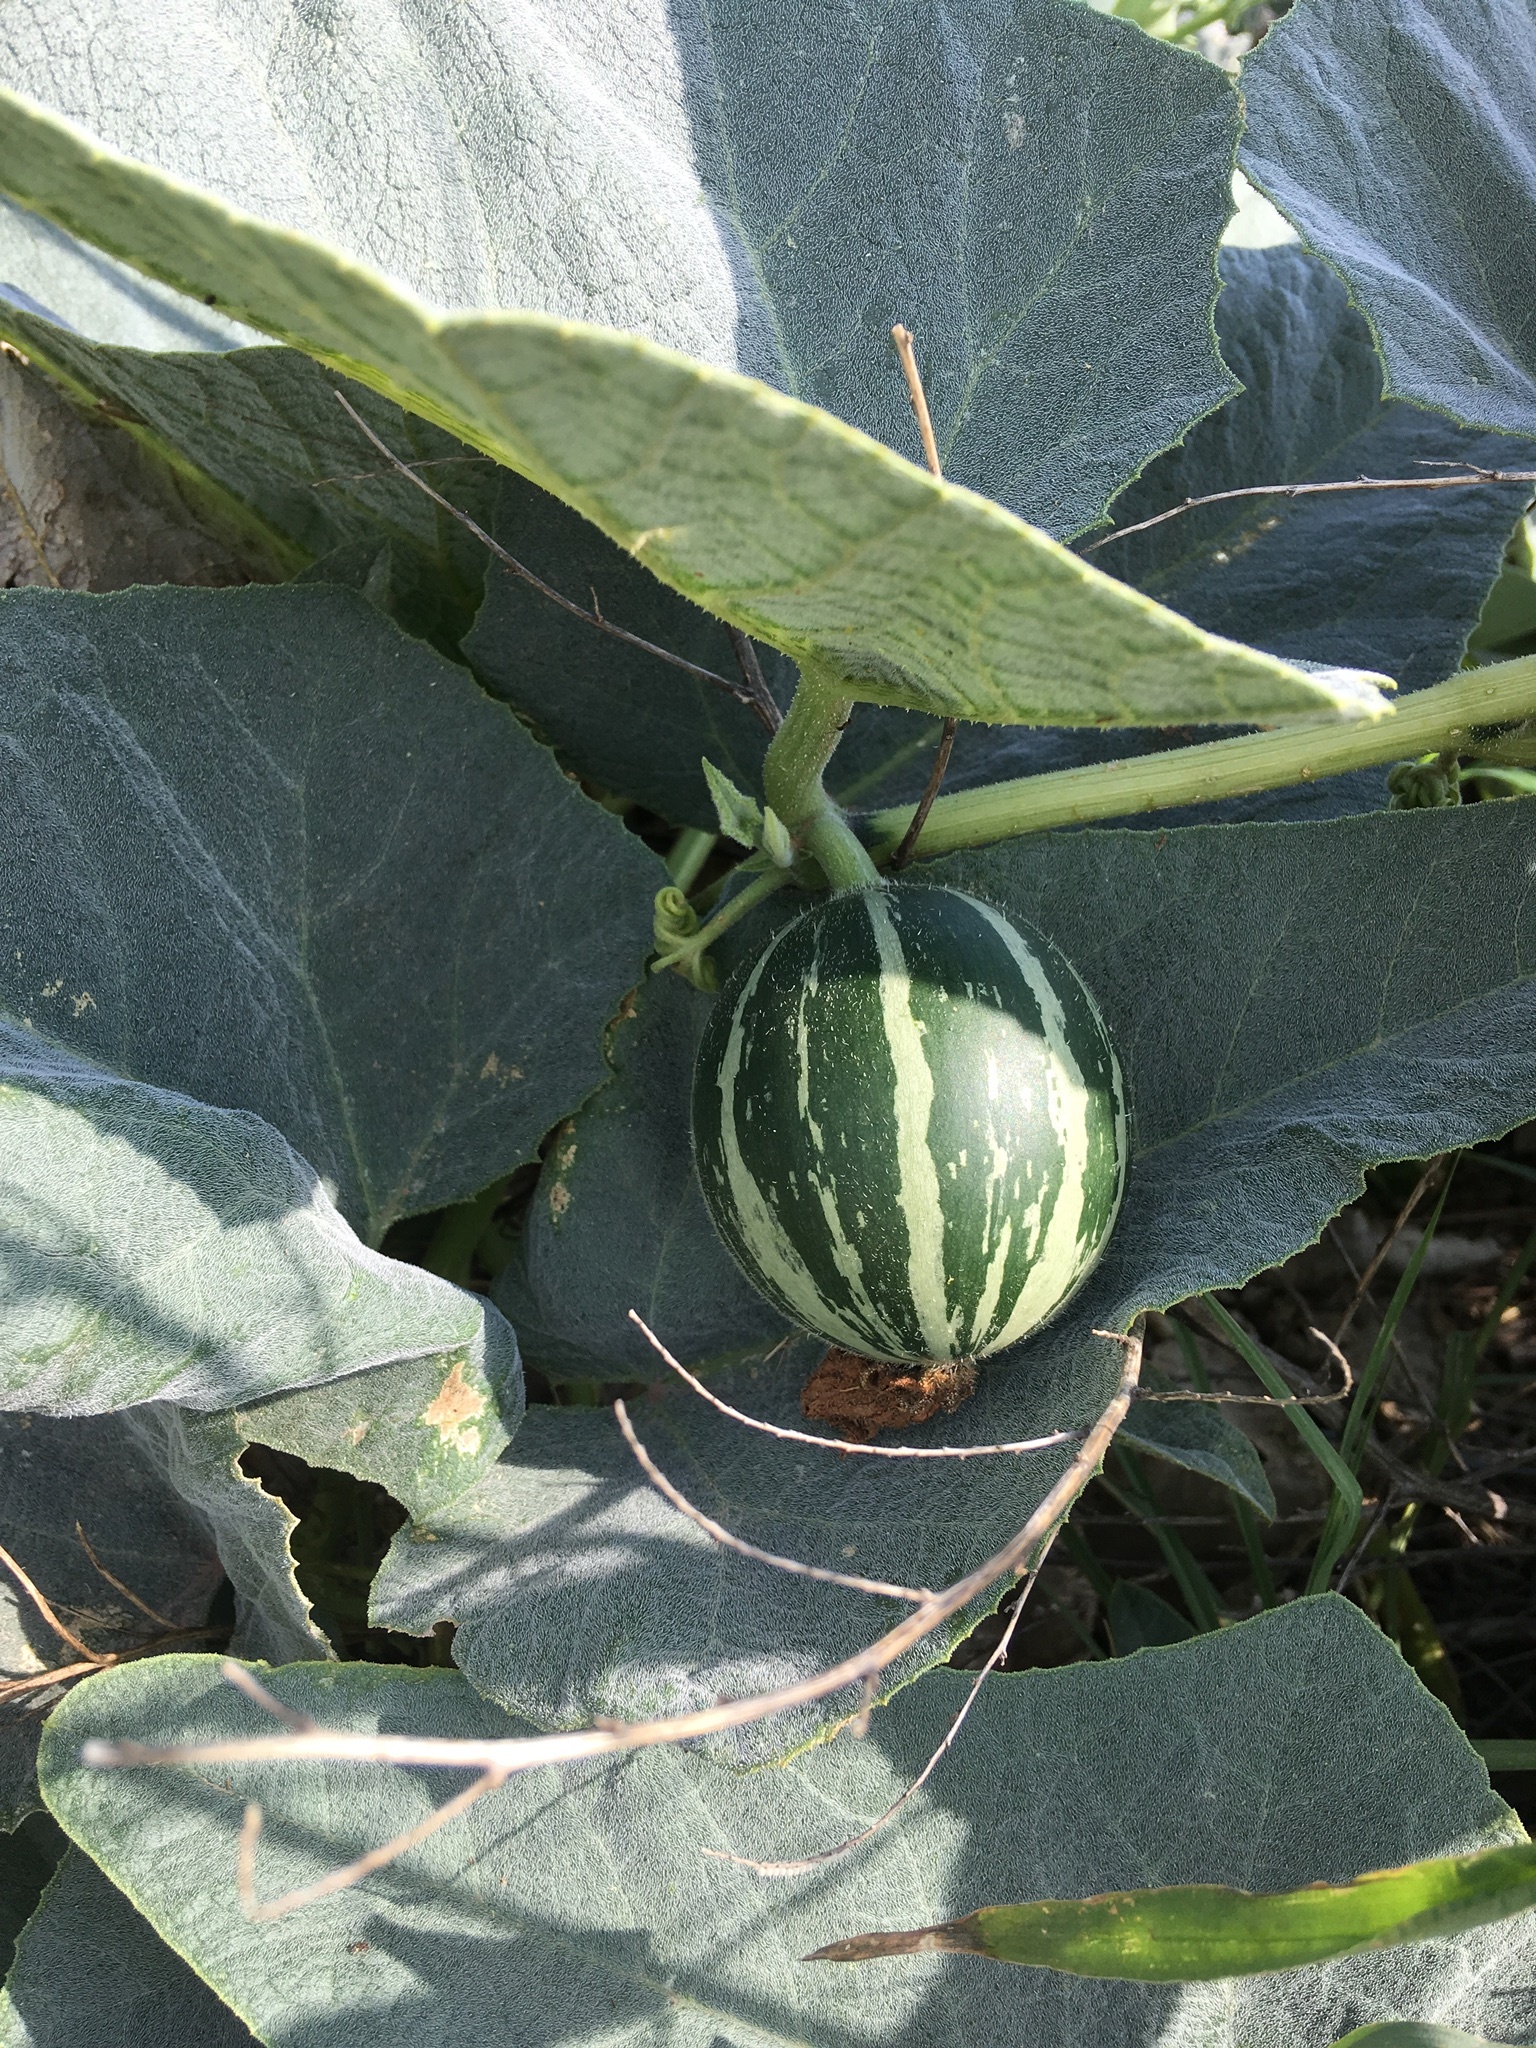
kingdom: Plantae
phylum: Tracheophyta
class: Magnoliopsida
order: Cucurbitales
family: Cucurbitaceae
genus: Cucurbita
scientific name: Cucurbita foetidissima
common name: Buffalo gourd
